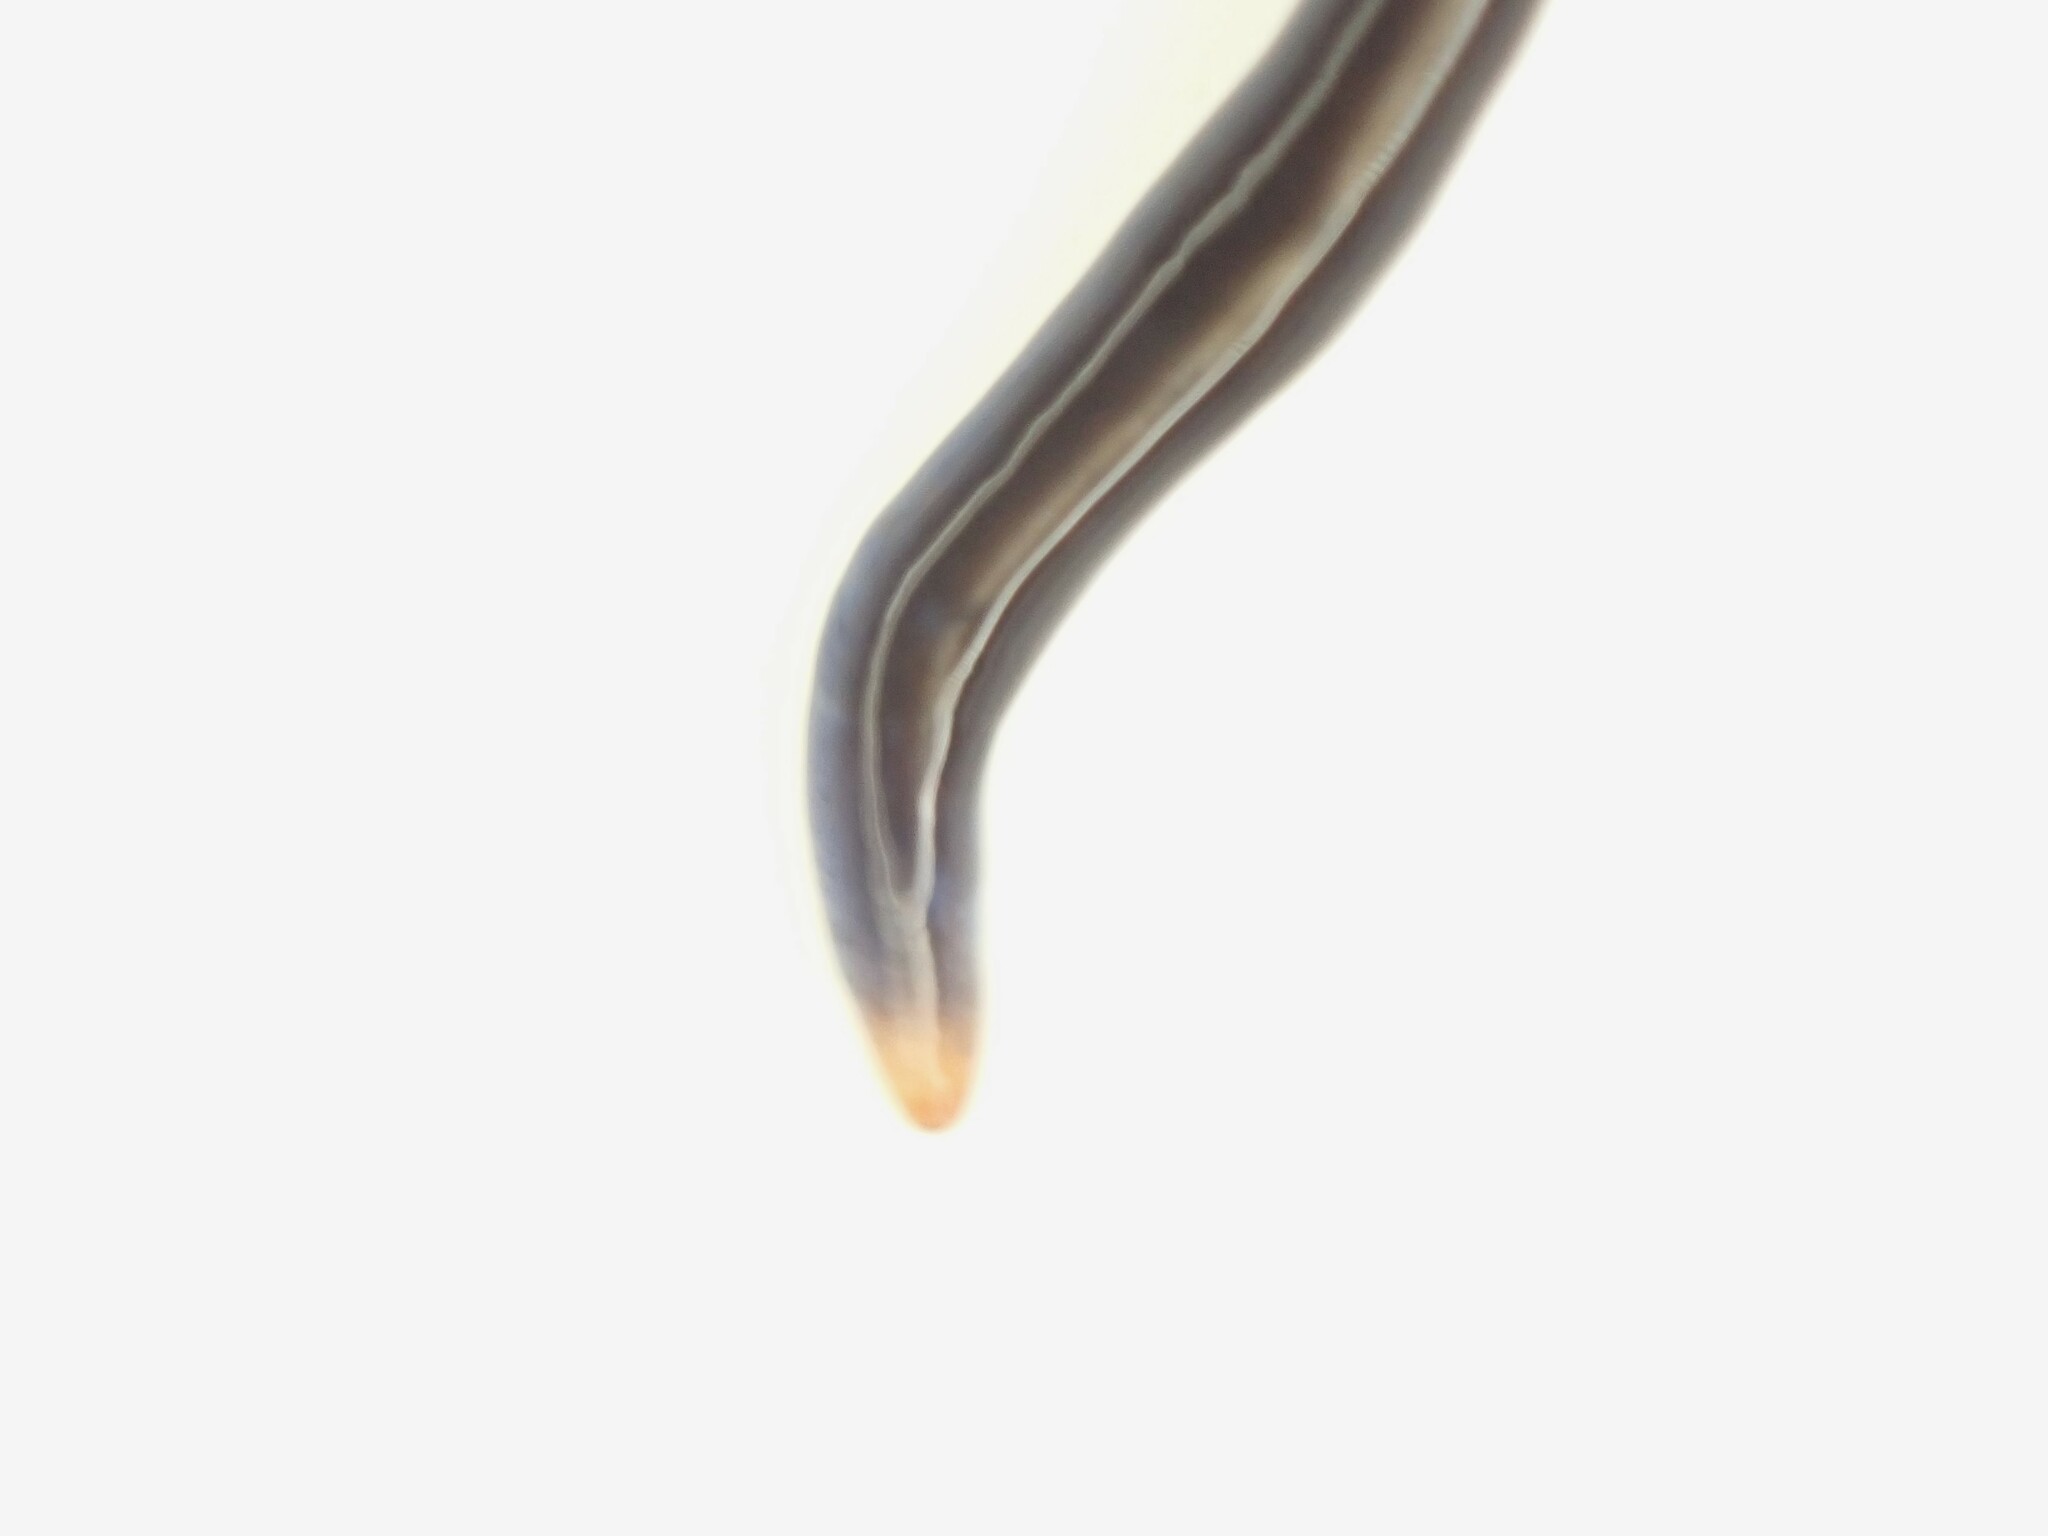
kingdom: Animalia
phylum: Platyhelminthes
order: Tricladida
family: Geoplanidae
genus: Caenoplana
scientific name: Caenoplana coerulea
